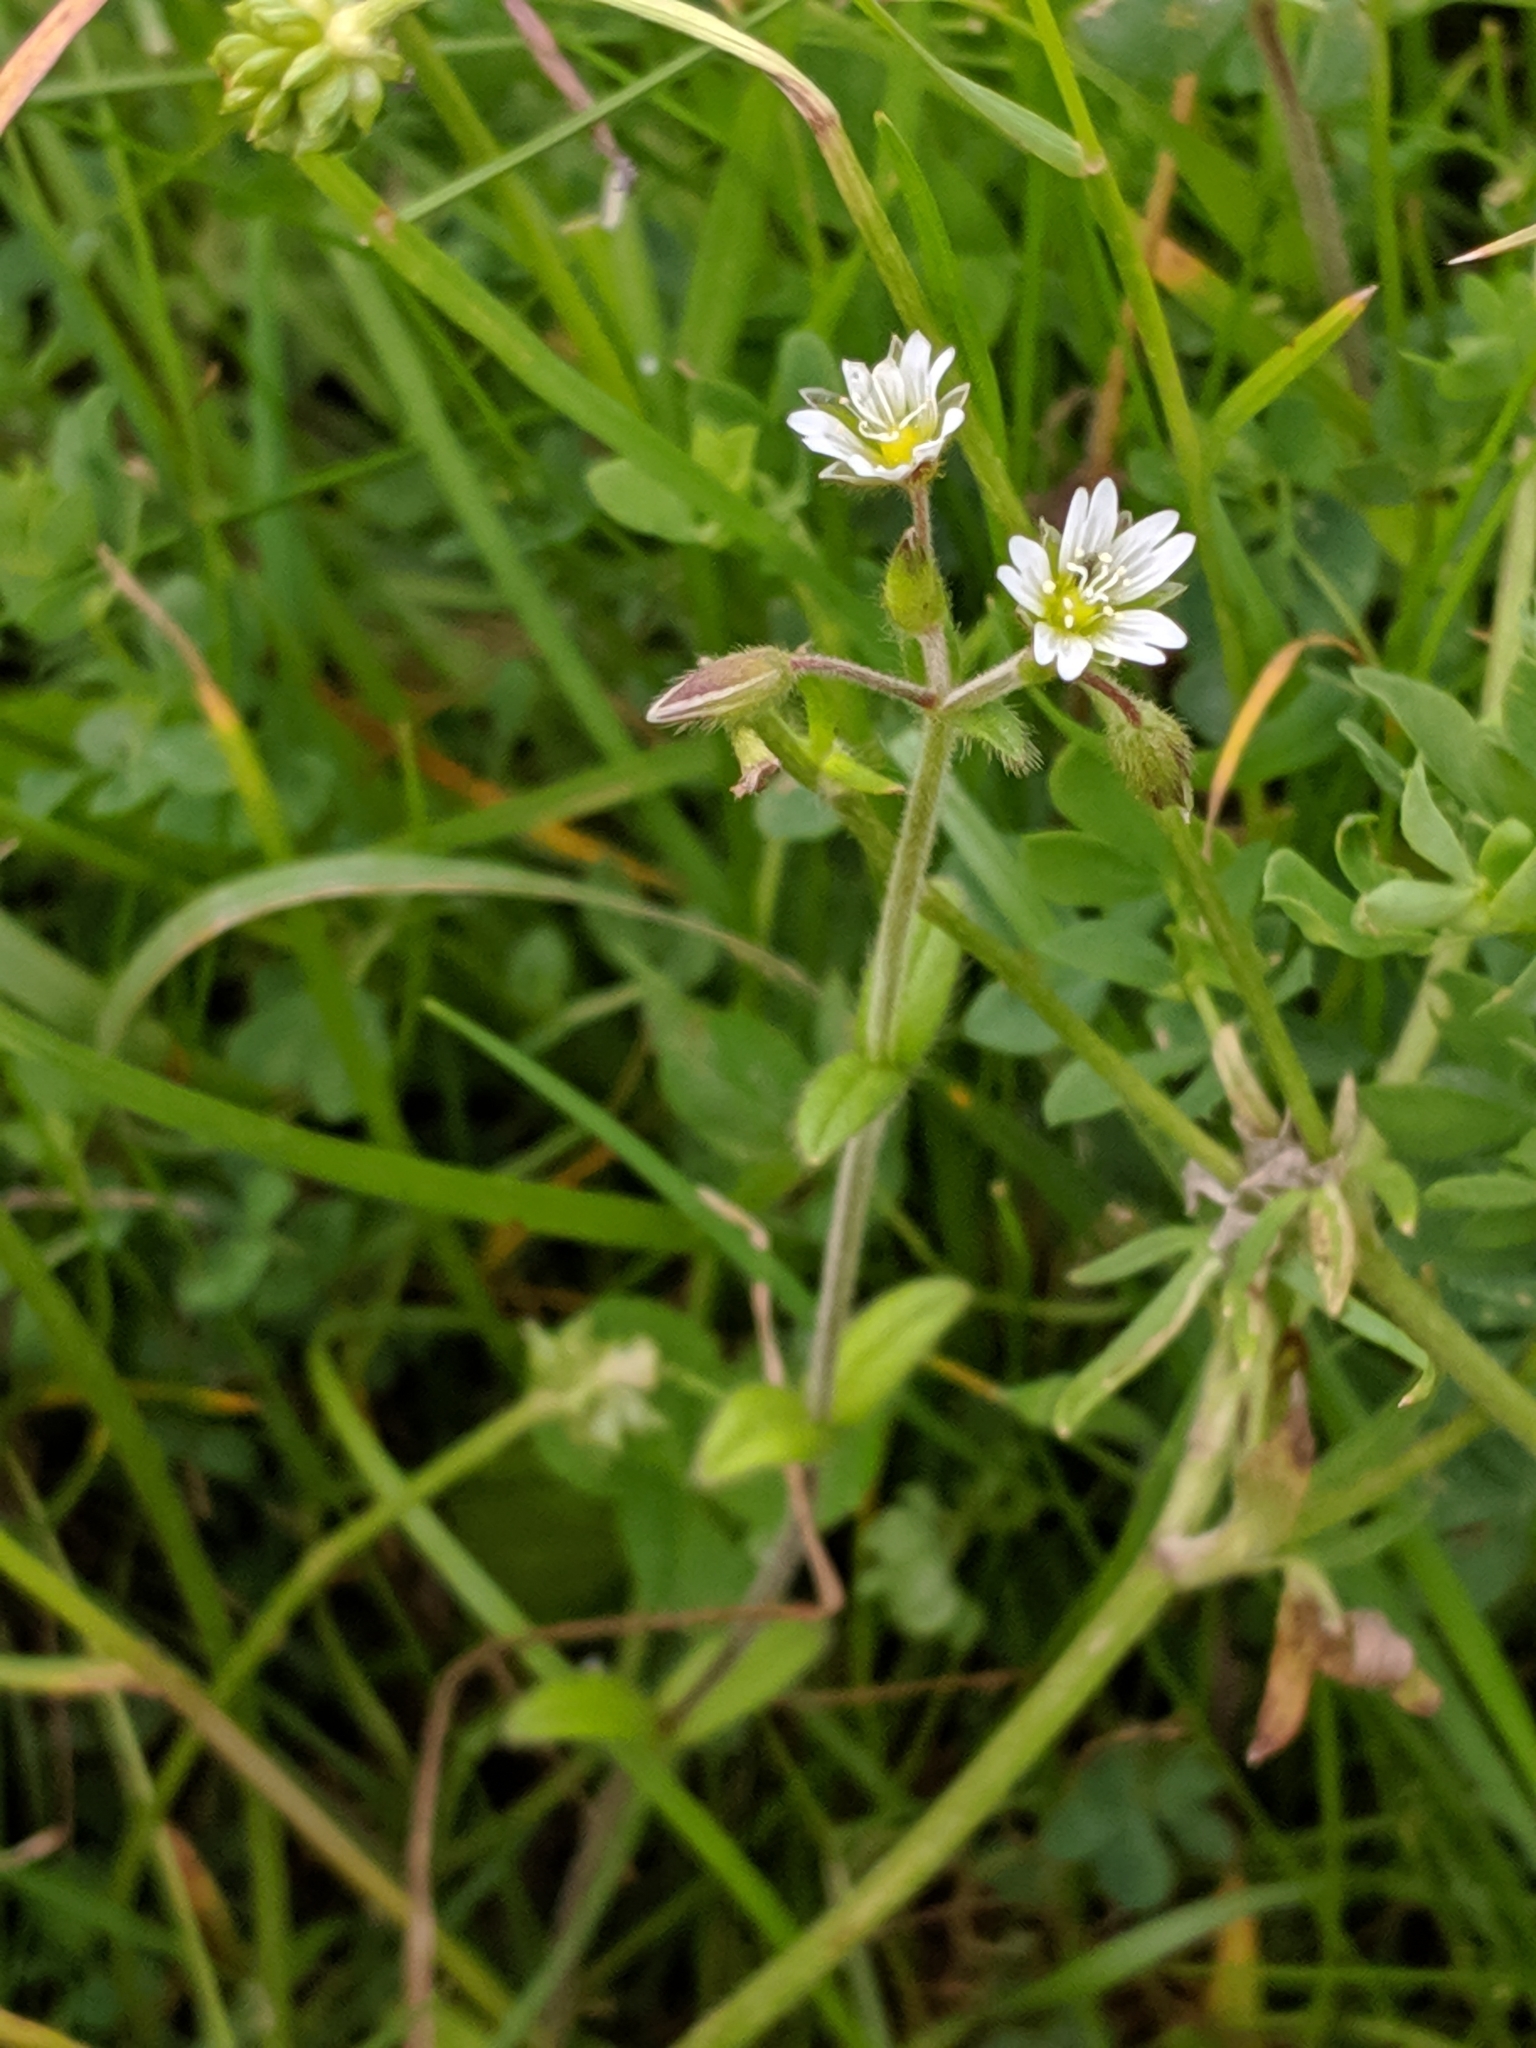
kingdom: Plantae
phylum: Tracheophyta
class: Magnoliopsida
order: Caryophyllales
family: Caryophyllaceae
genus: Cerastium
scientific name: Cerastium fontanum
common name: Common mouse-ear
